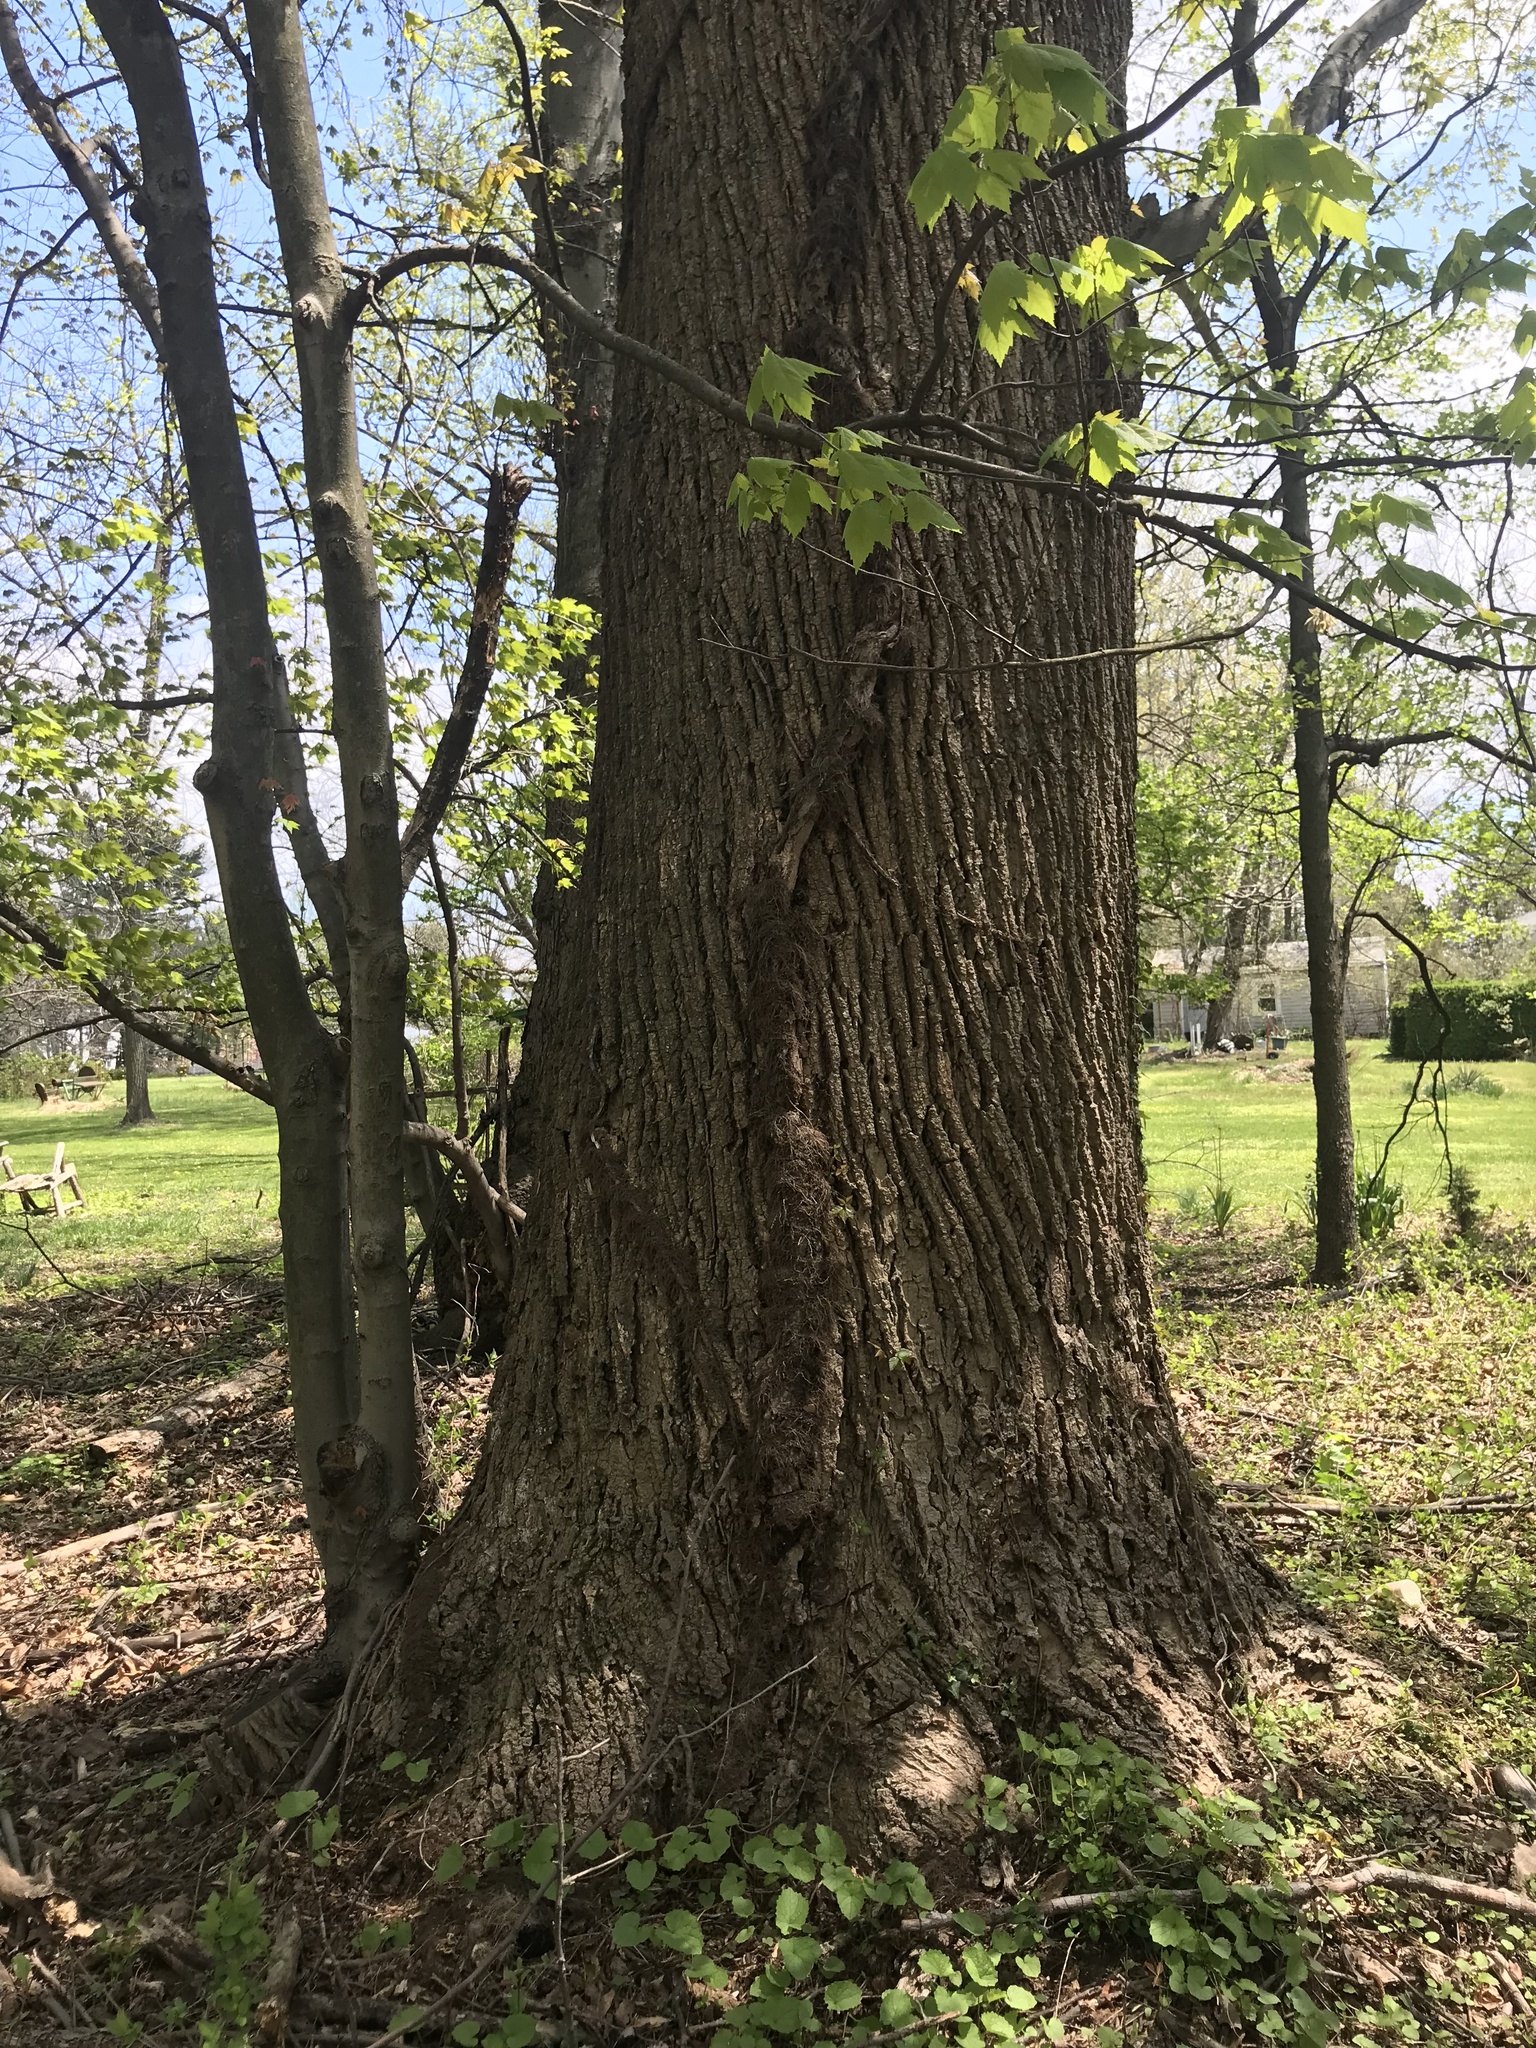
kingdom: Plantae
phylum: Tracheophyta
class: Magnoliopsida
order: Sapindales
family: Anacardiaceae
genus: Toxicodendron
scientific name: Toxicodendron radicans
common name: Poison ivy
